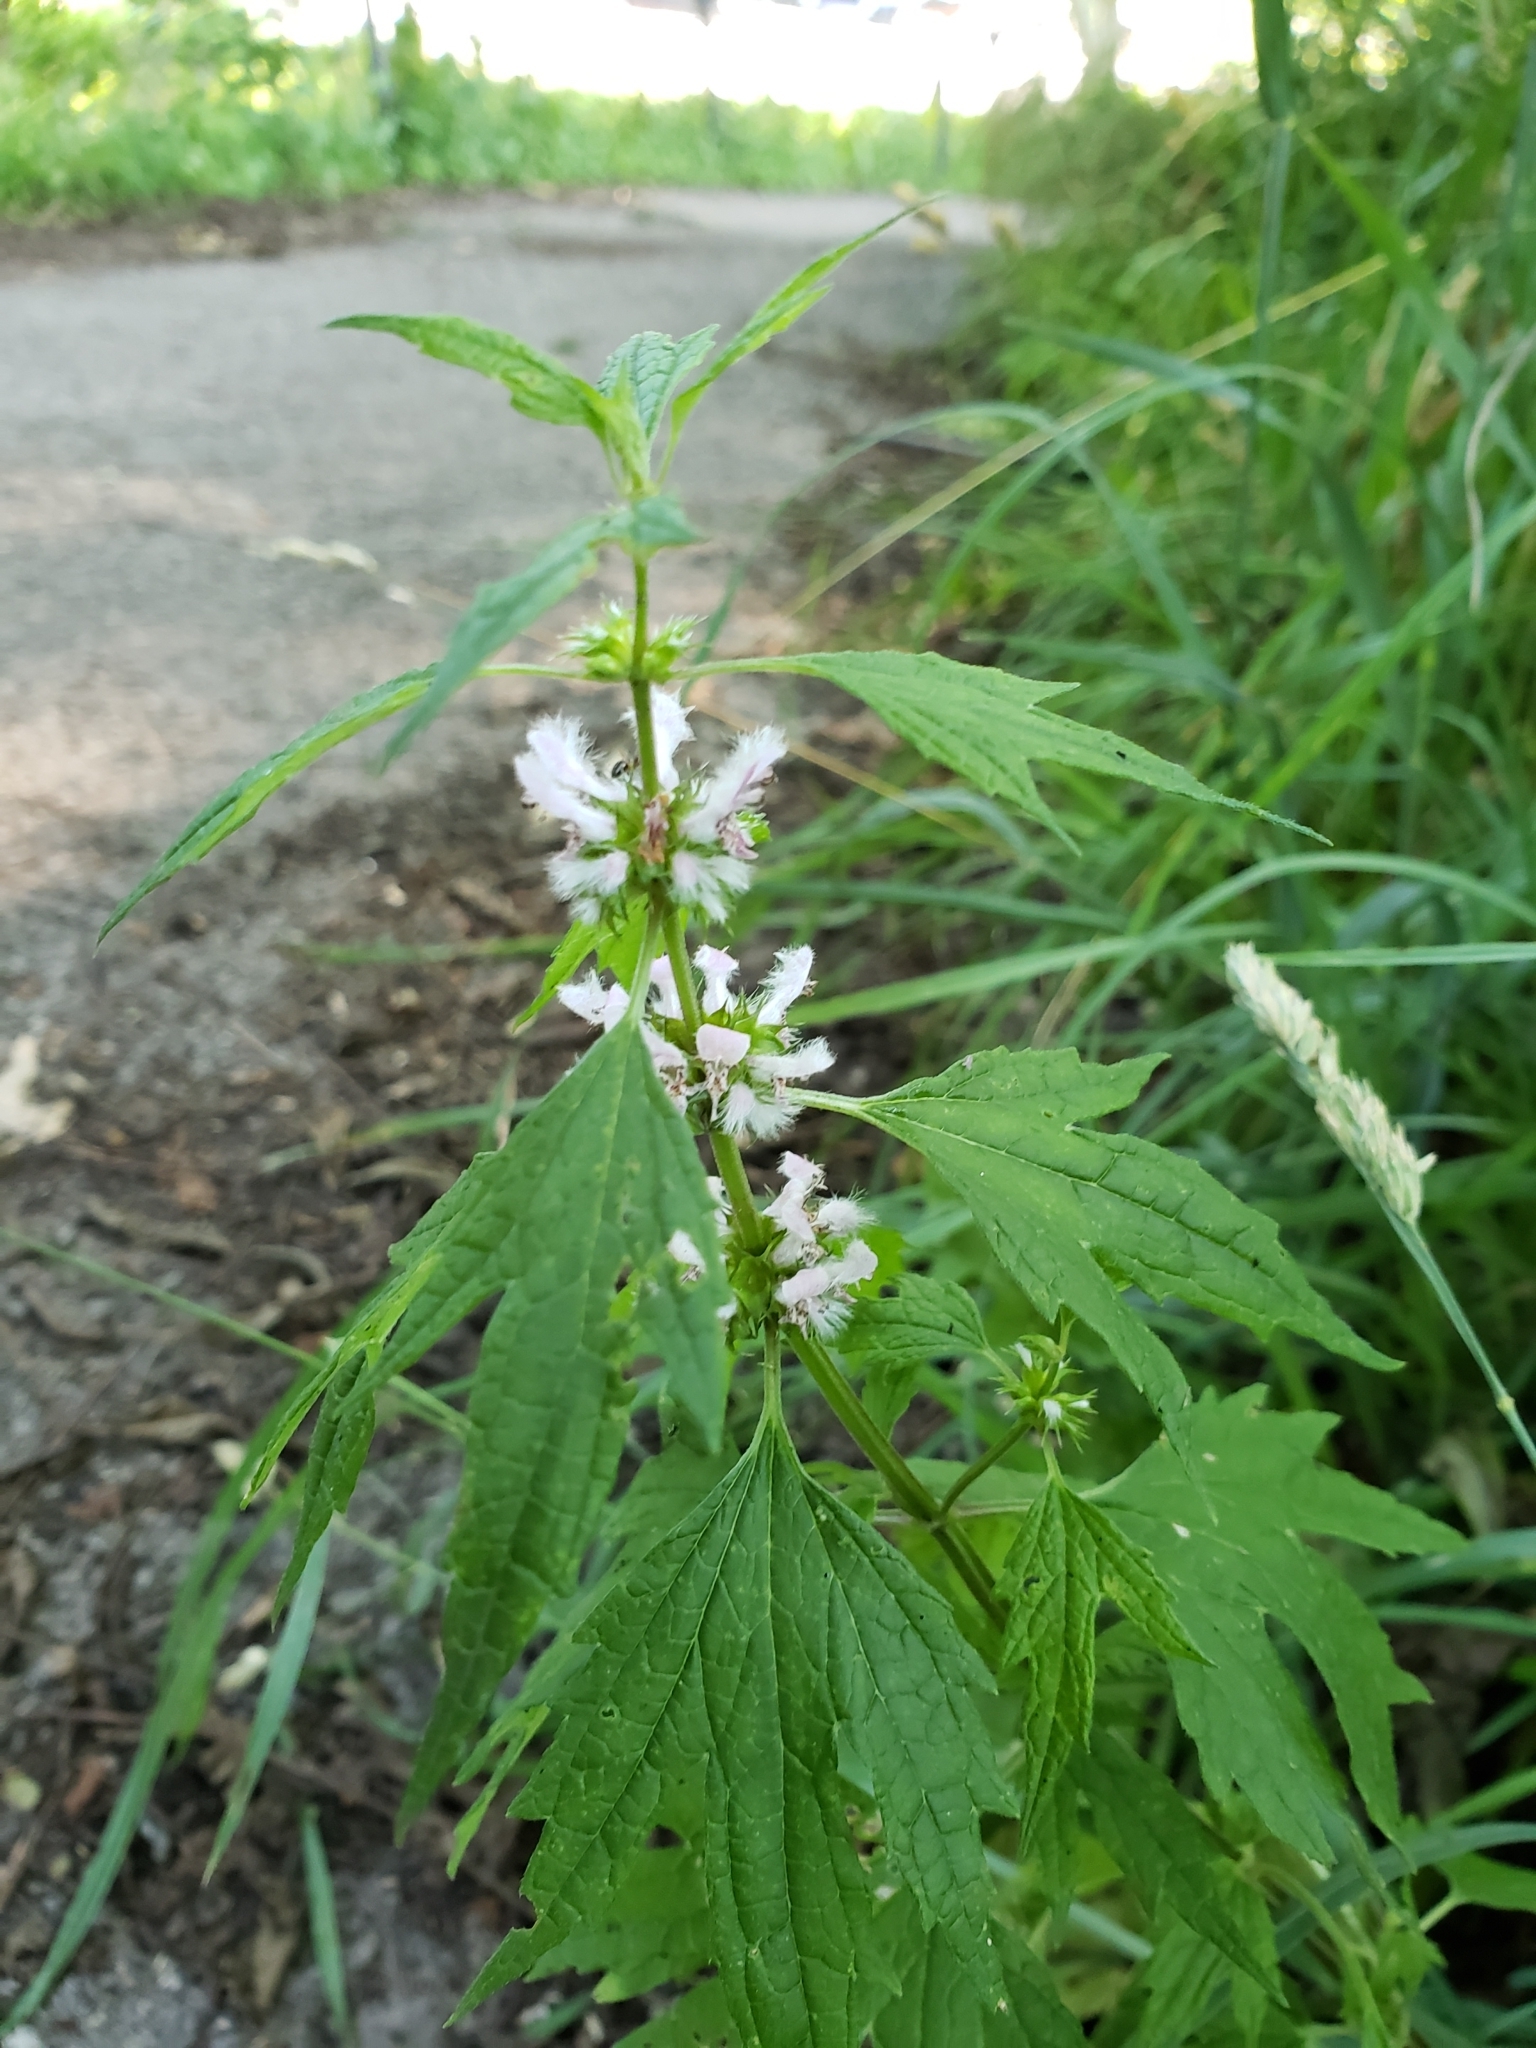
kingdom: Plantae
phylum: Tracheophyta
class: Magnoliopsida
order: Lamiales
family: Lamiaceae
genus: Leonurus
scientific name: Leonurus cardiaca
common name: Motherwort
